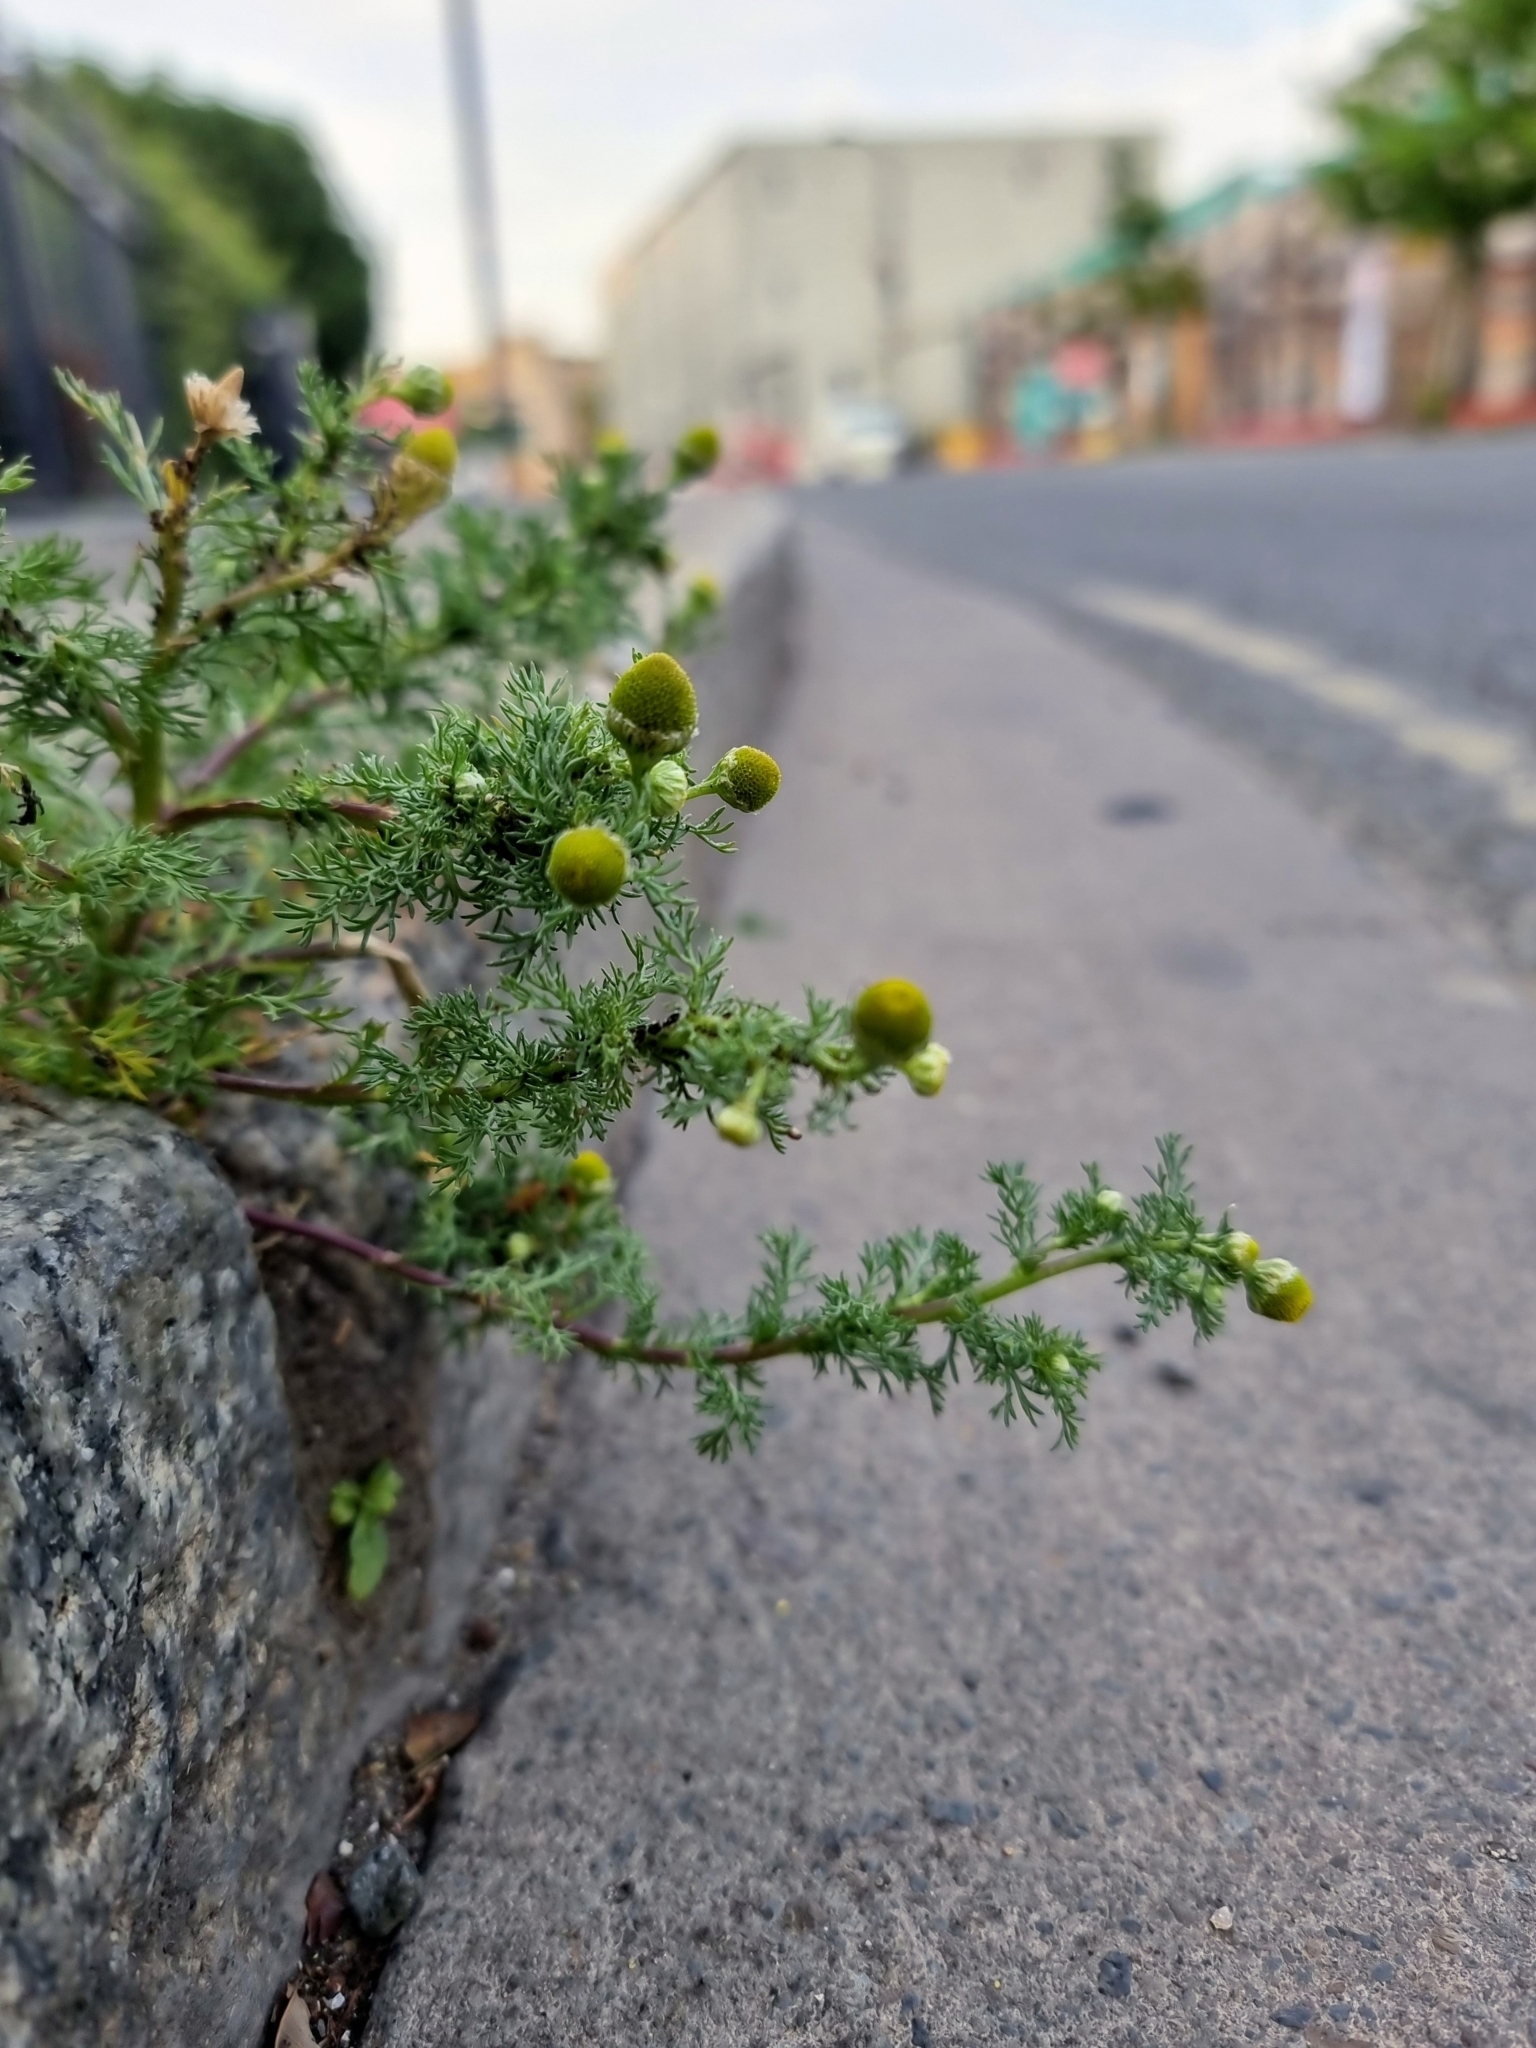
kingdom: Plantae
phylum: Tracheophyta
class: Magnoliopsida
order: Asterales
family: Asteraceae
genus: Matricaria
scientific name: Matricaria discoidea
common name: Disc mayweed
